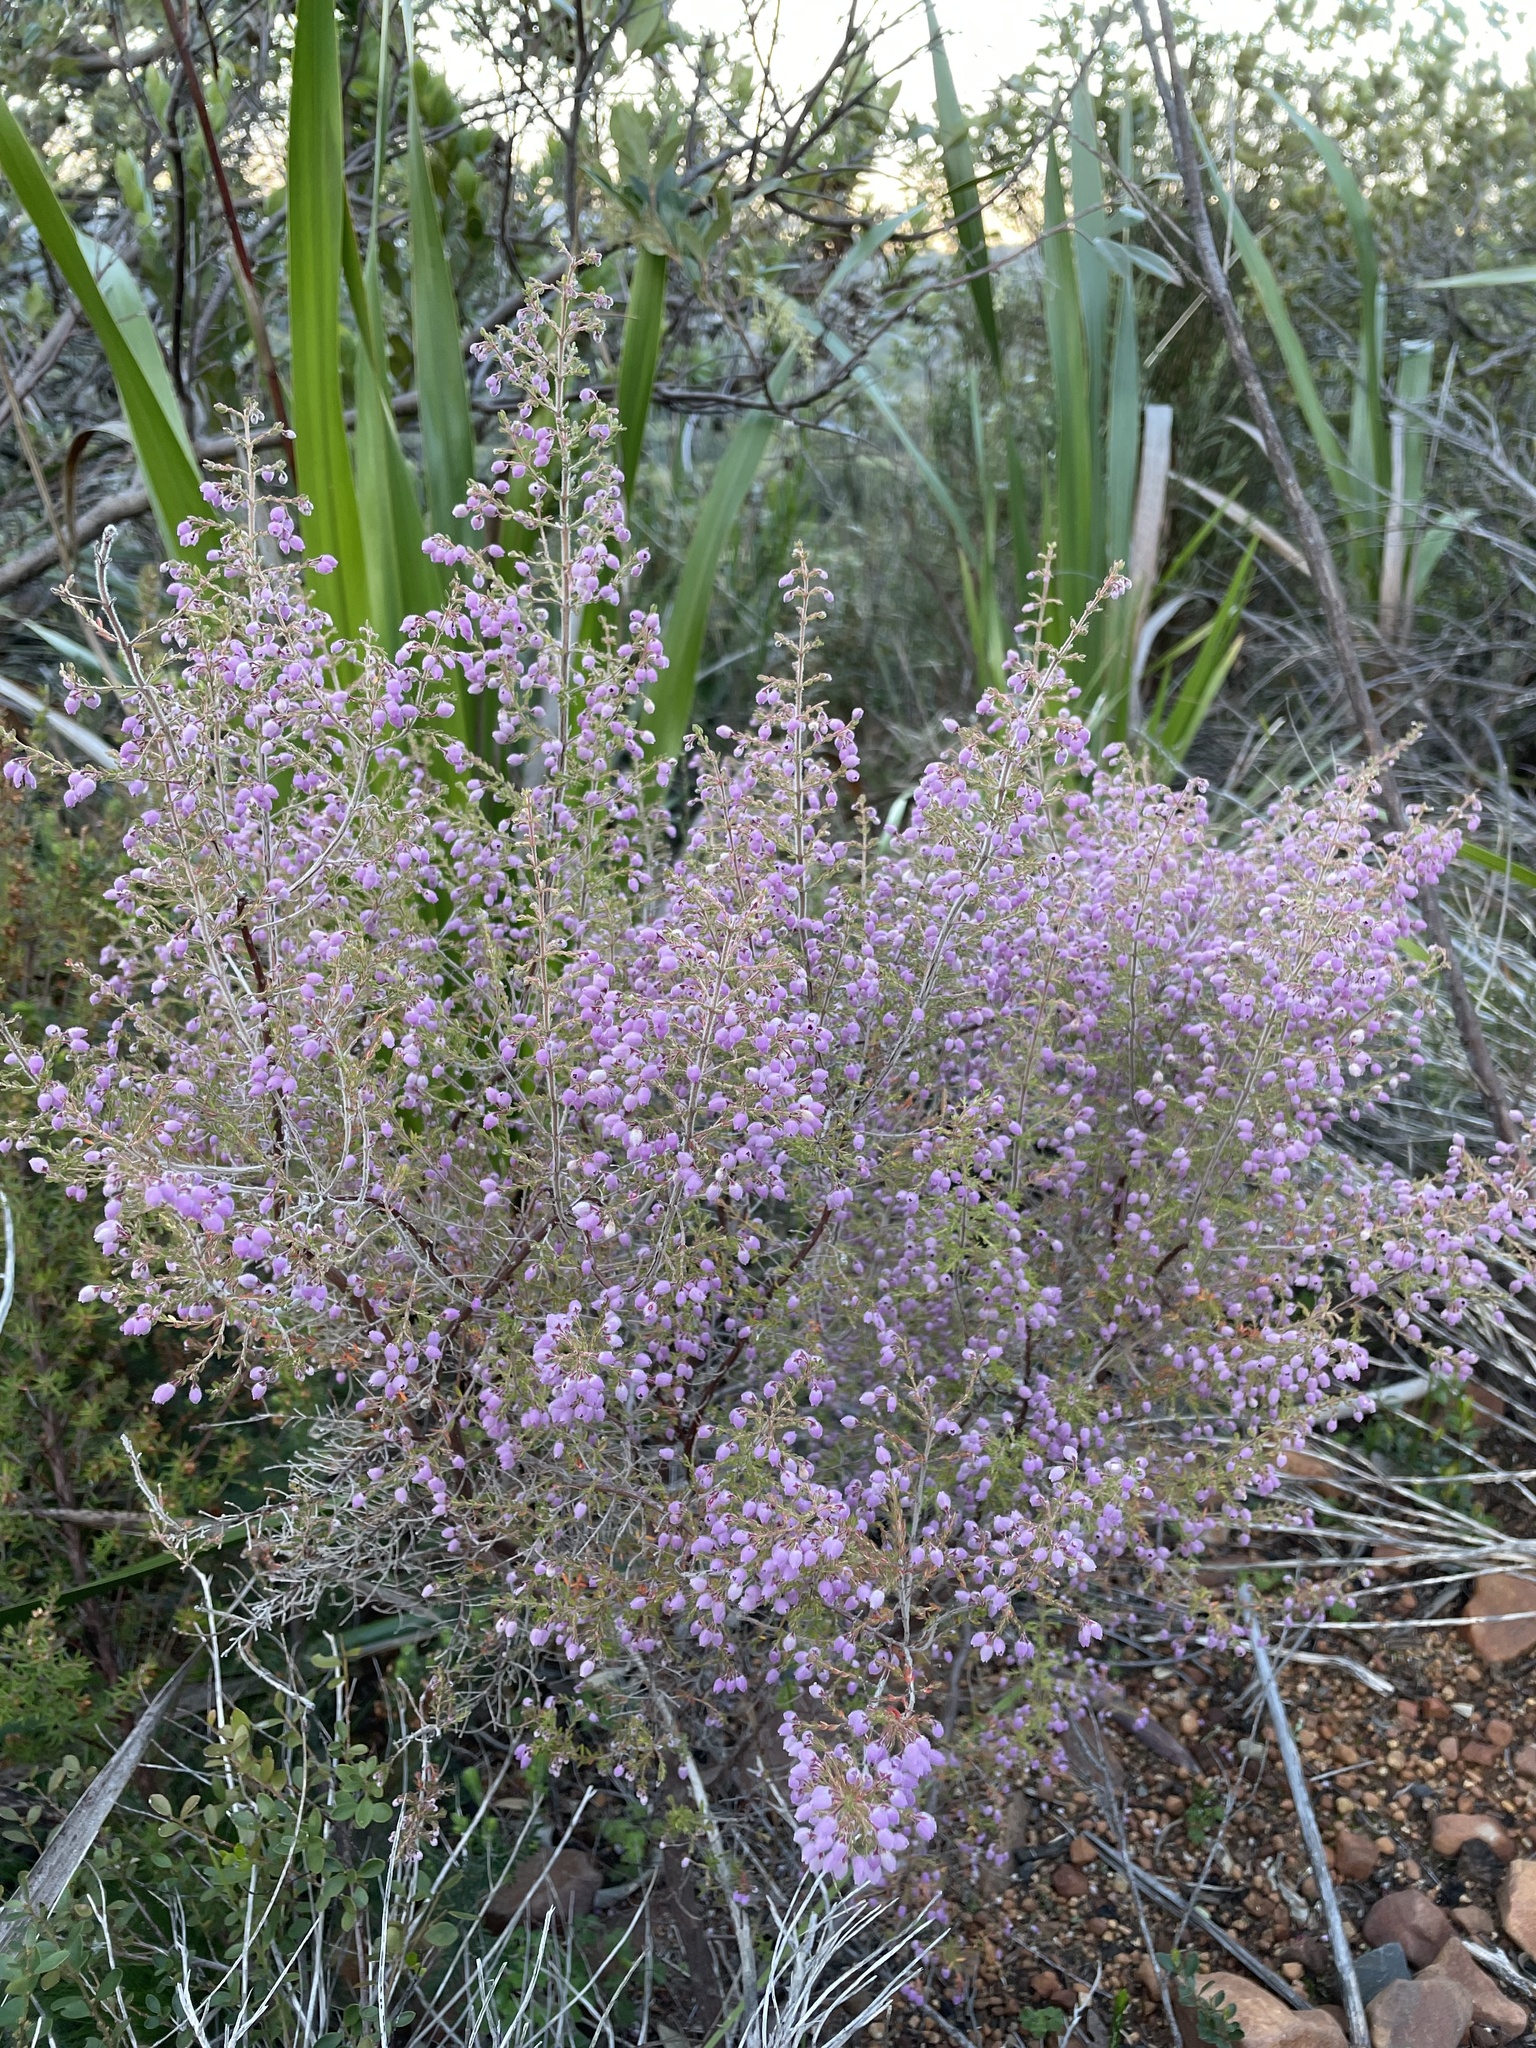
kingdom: Plantae
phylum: Tracheophyta
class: Magnoliopsida
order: Ericales
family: Ericaceae
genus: Erica
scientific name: Erica hirtiflora
